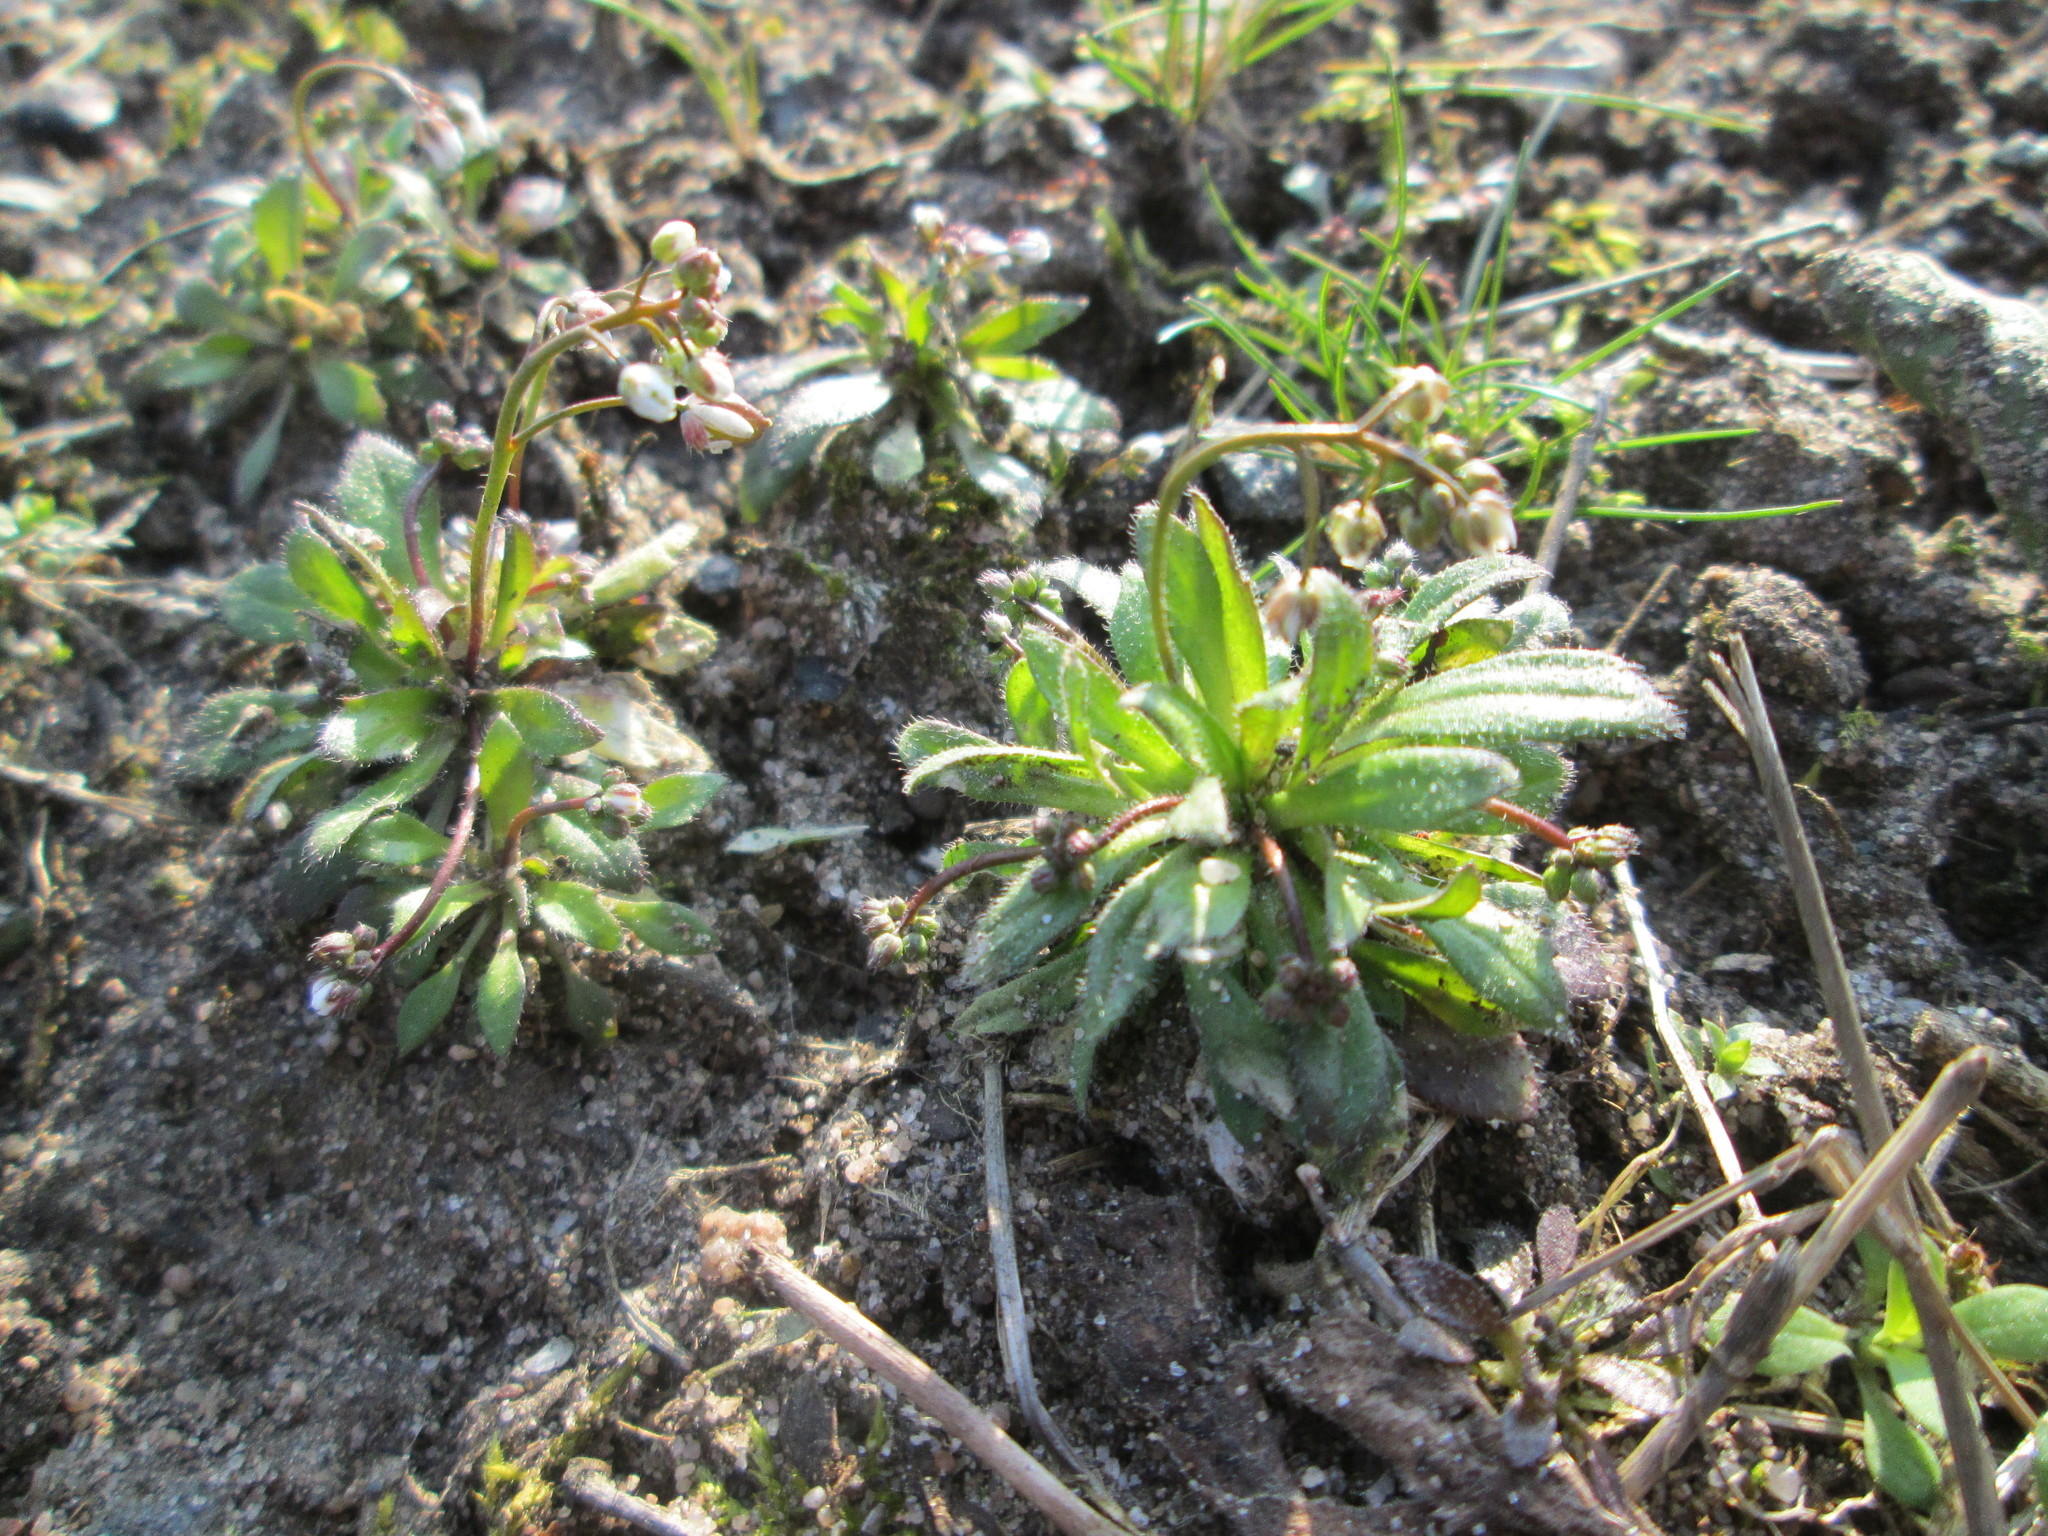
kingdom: Plantae
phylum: Tracheophyta
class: Magnoliopsida
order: Brassicales
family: Brassicaceae
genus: Draba
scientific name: Draba verna
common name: Spring draba
